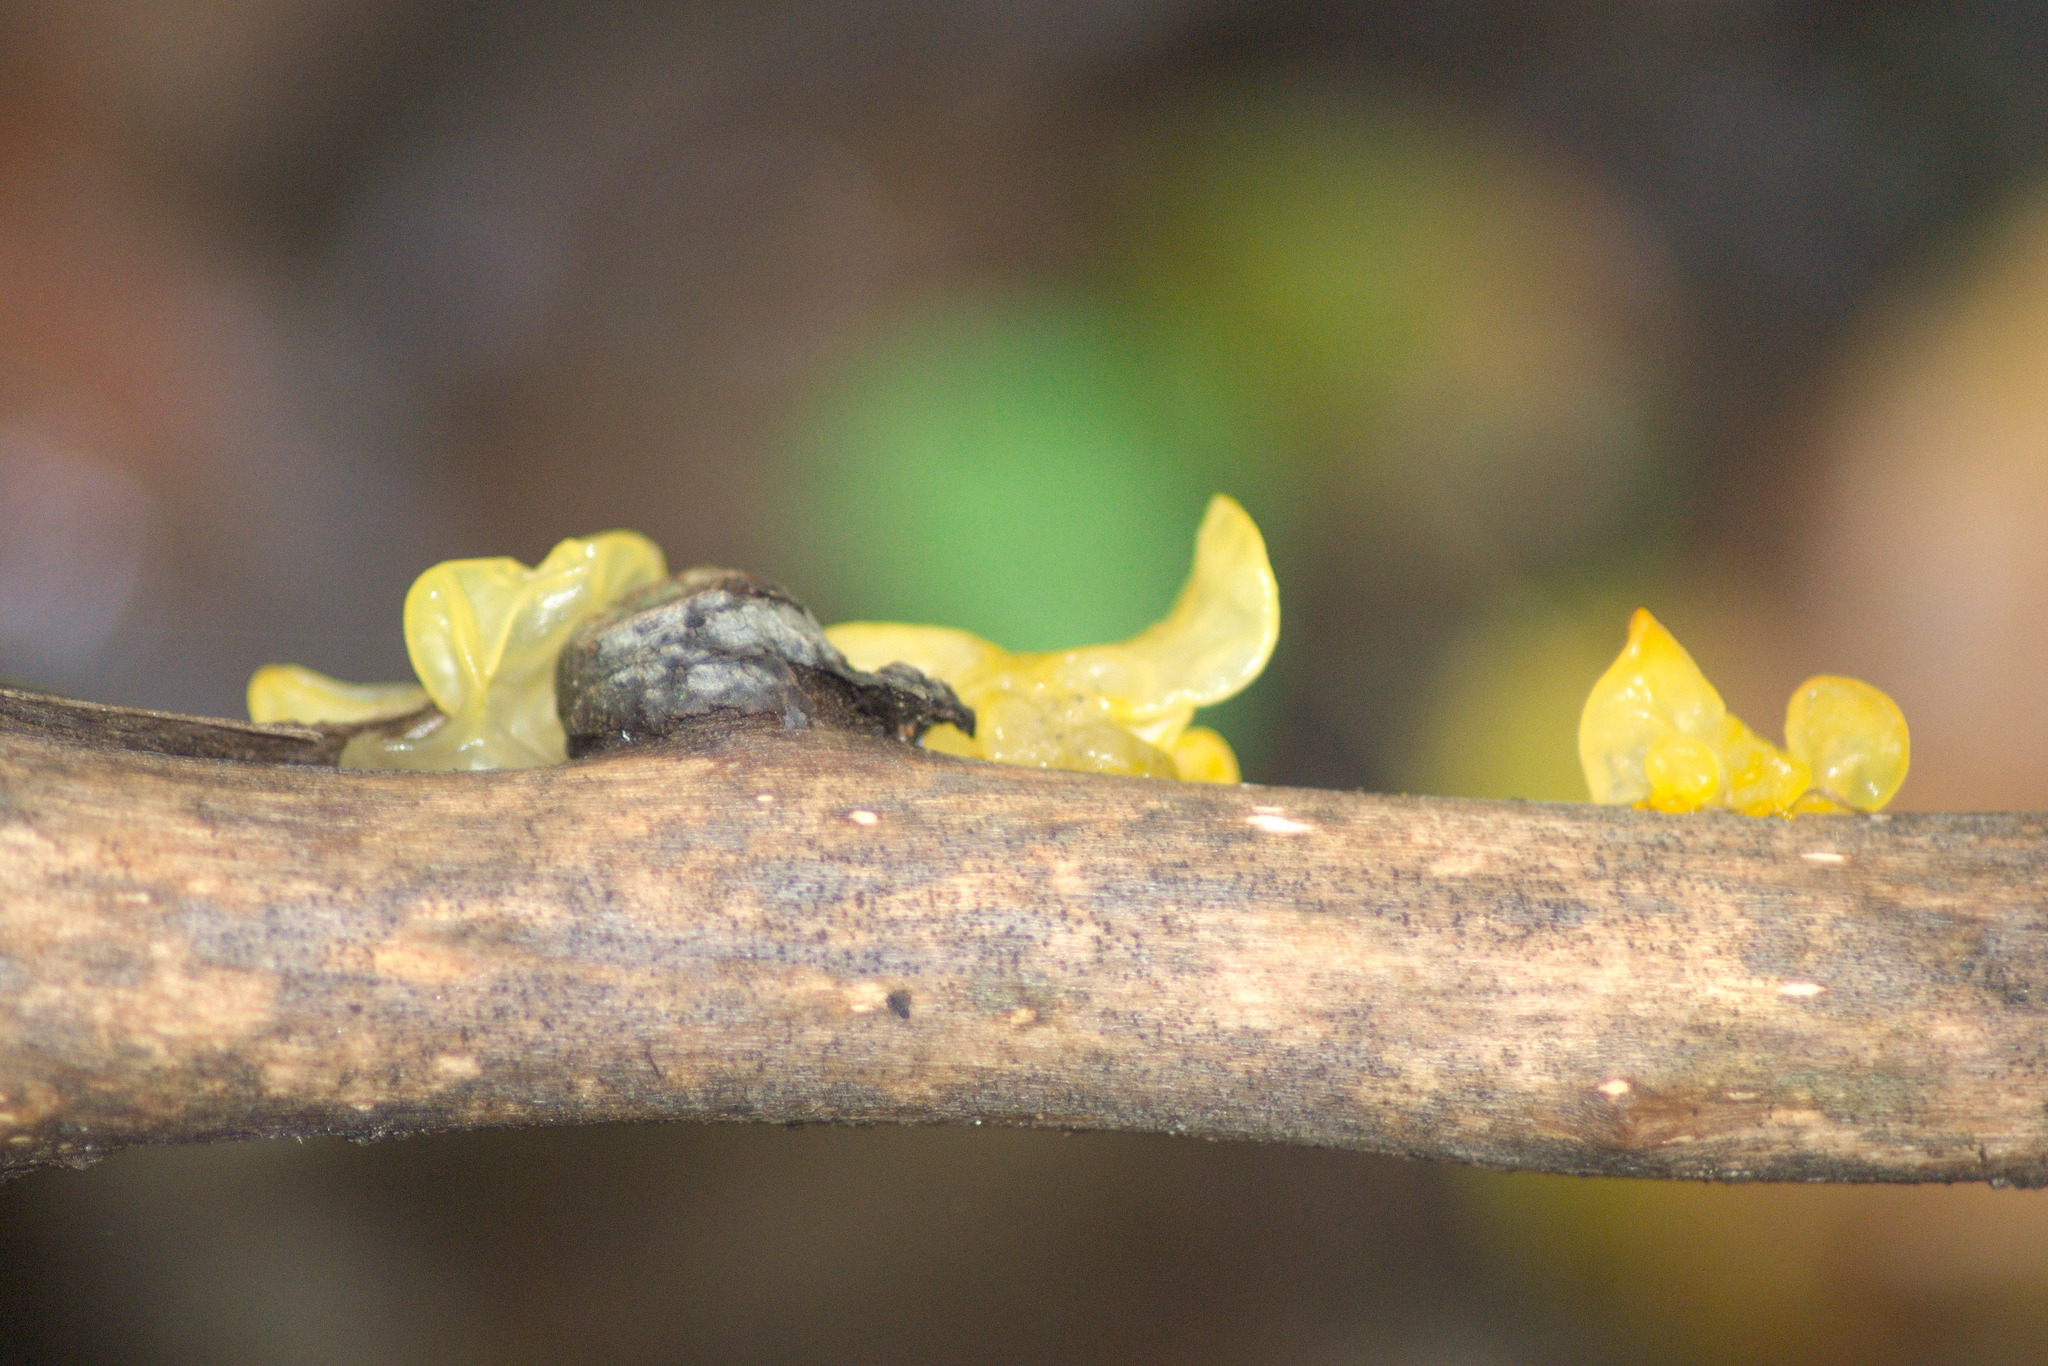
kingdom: Fungi
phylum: Basidiomycota
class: Tremellomycetes
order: Tremellales
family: Tremellaceae
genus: Tremella
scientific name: Tremella mesenterica
